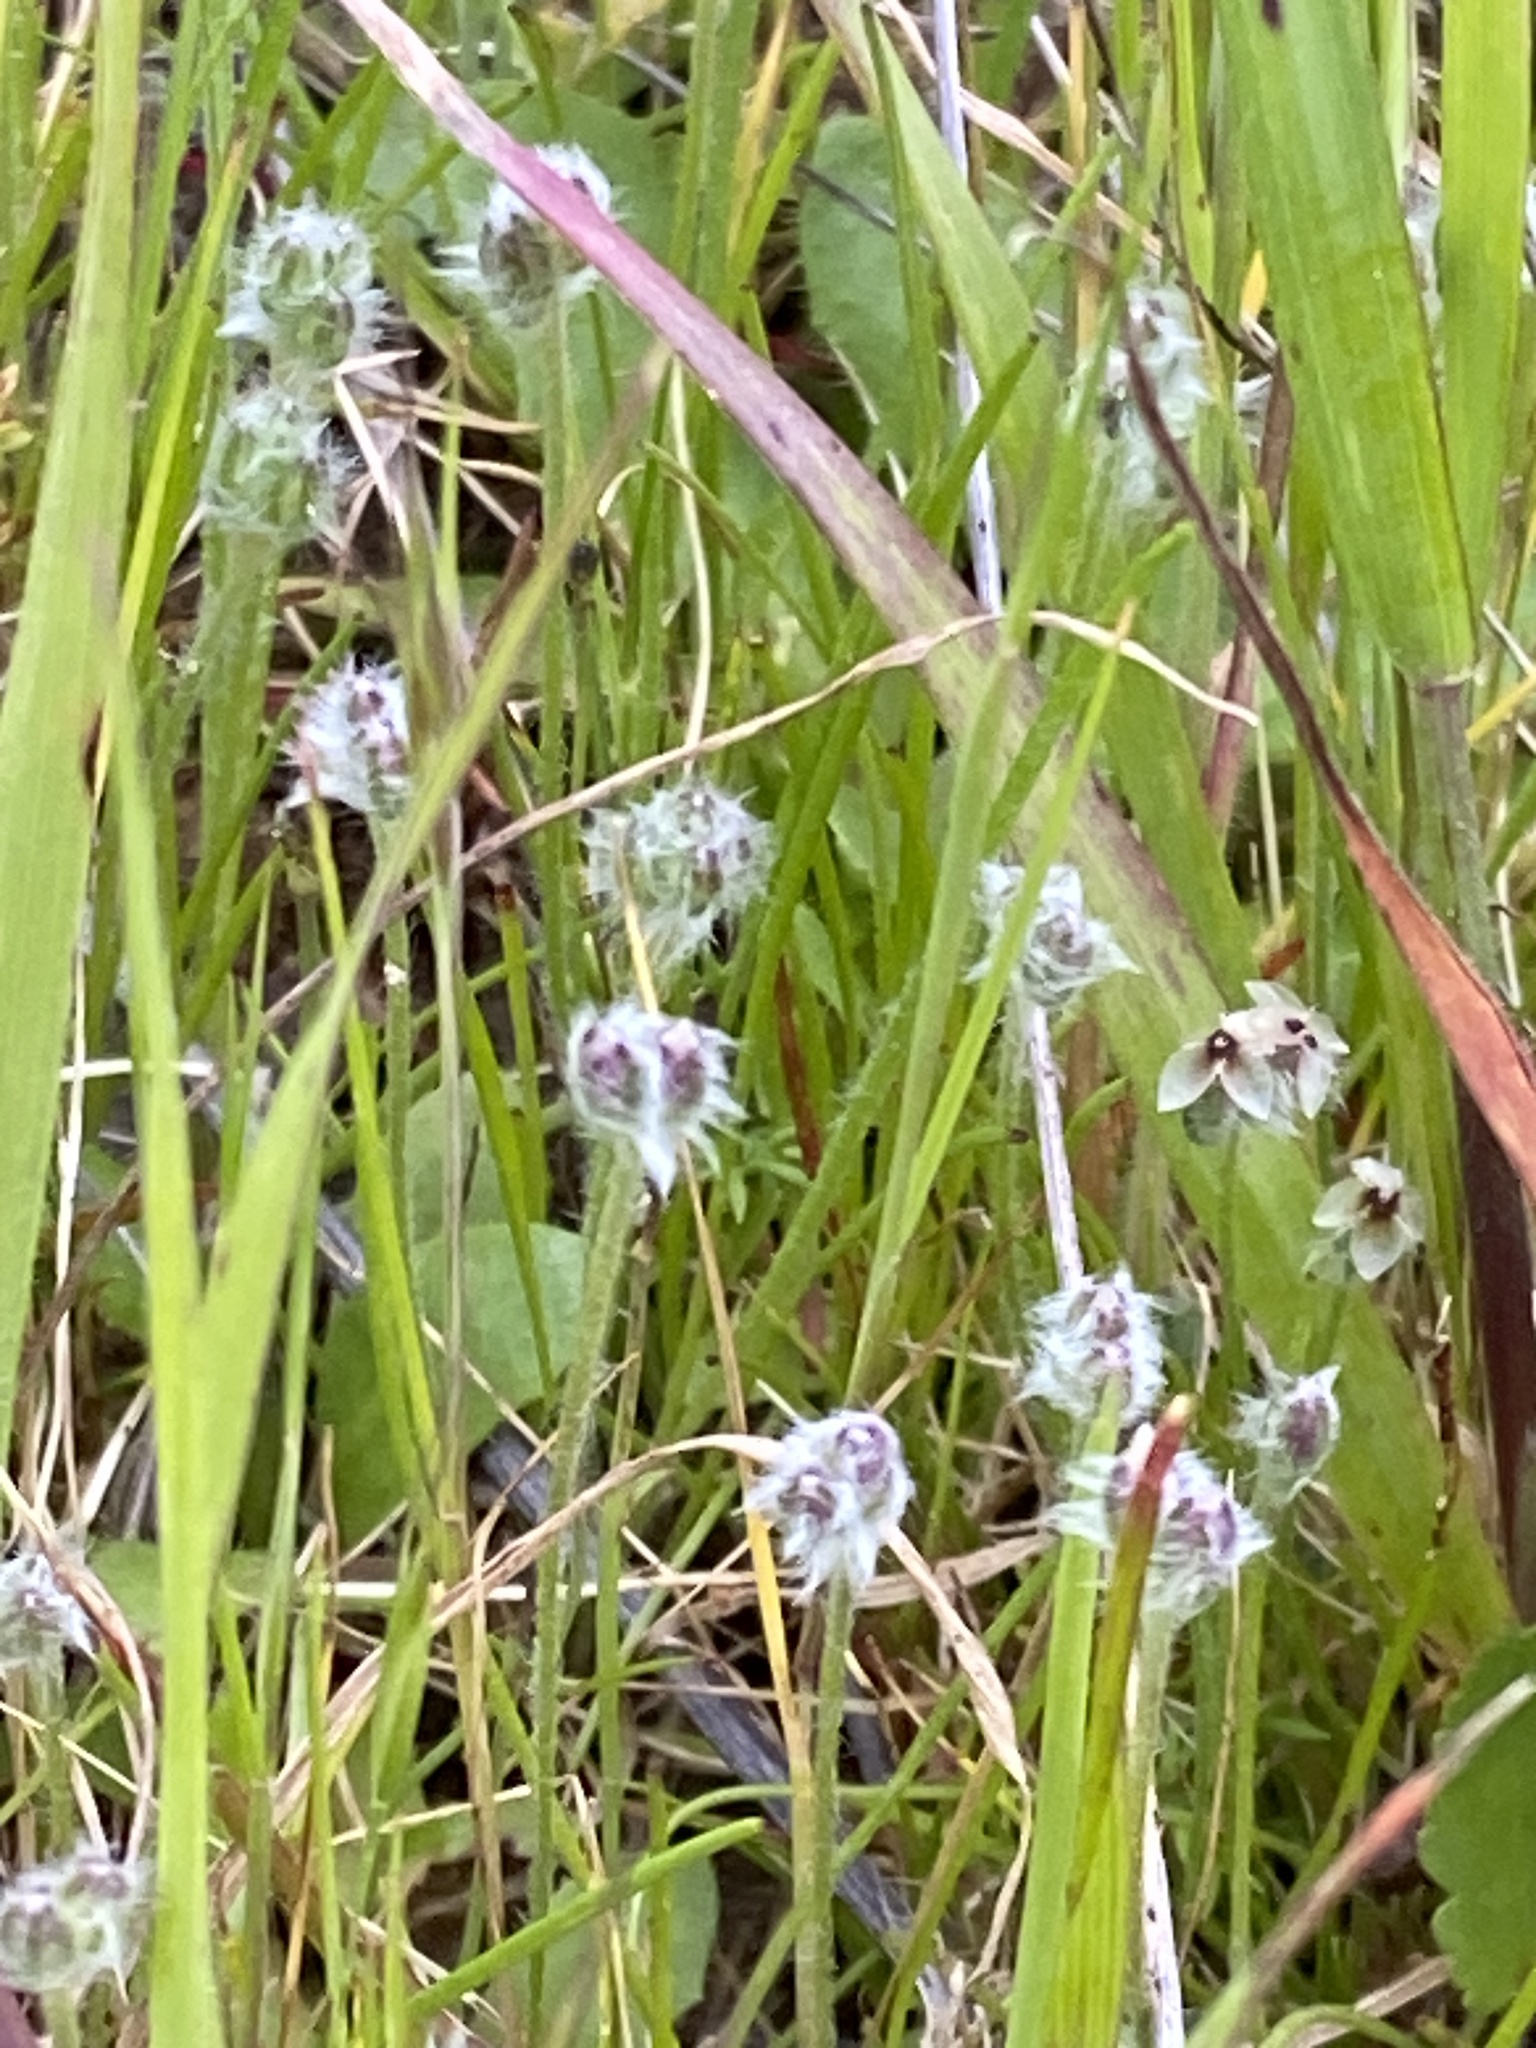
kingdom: Plantae
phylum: Tracheophyta
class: Magnoliopsida
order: Lamiales
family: Plantaginaceae
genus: Plantago
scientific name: Plantago erecta
